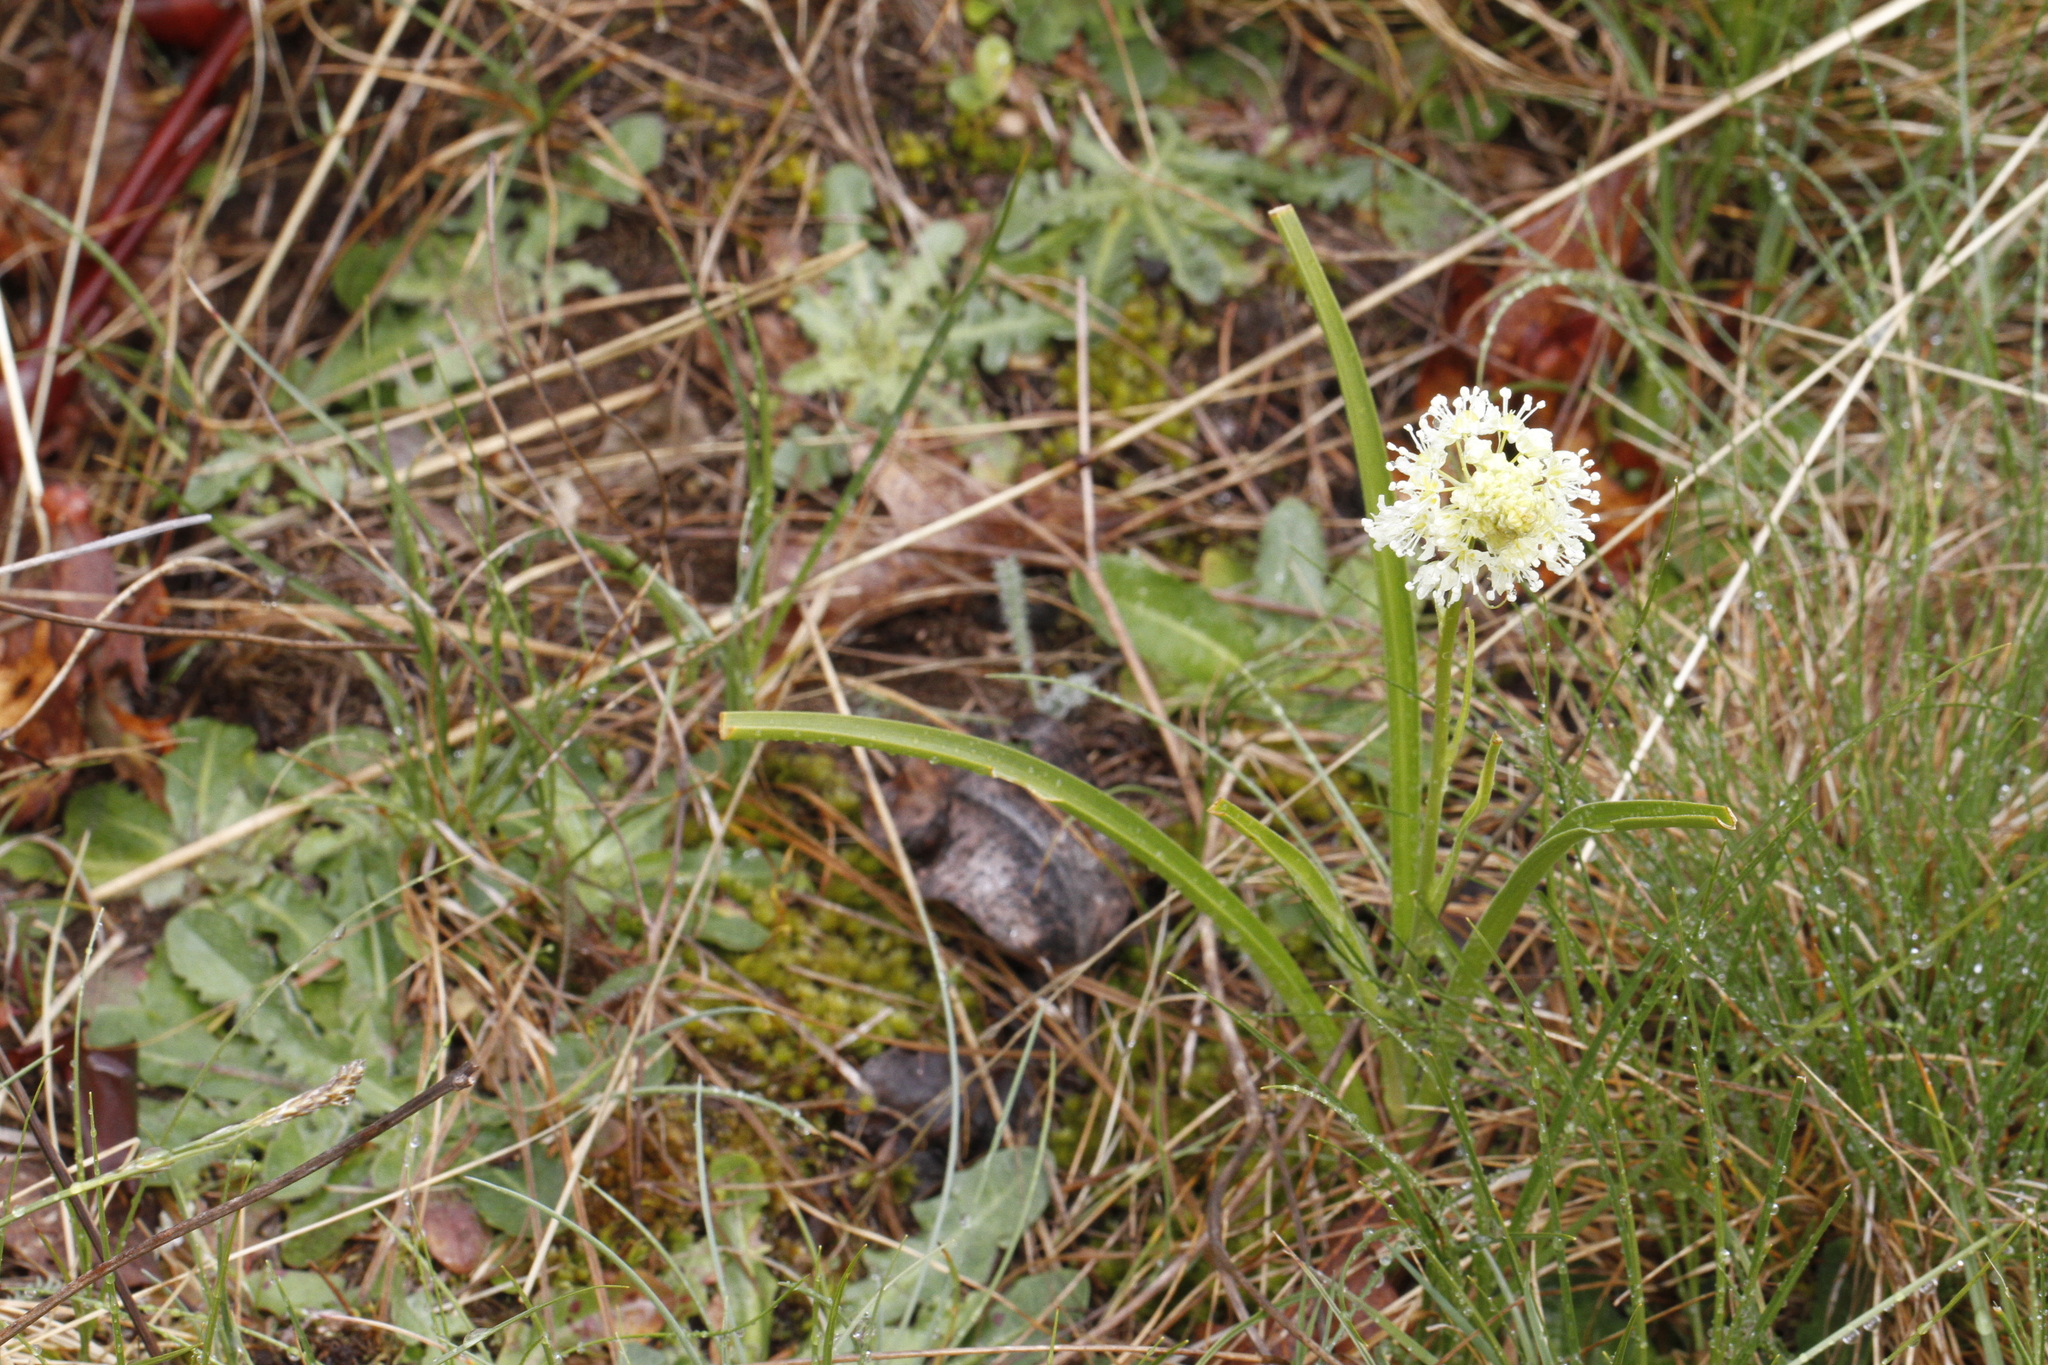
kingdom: Plantae
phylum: Tracheophyta
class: Liliopsida
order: Liliales
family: Melanthiaceae
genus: Toxicoscordion
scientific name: Toxicoscordion venenosum
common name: Meadow death camas
